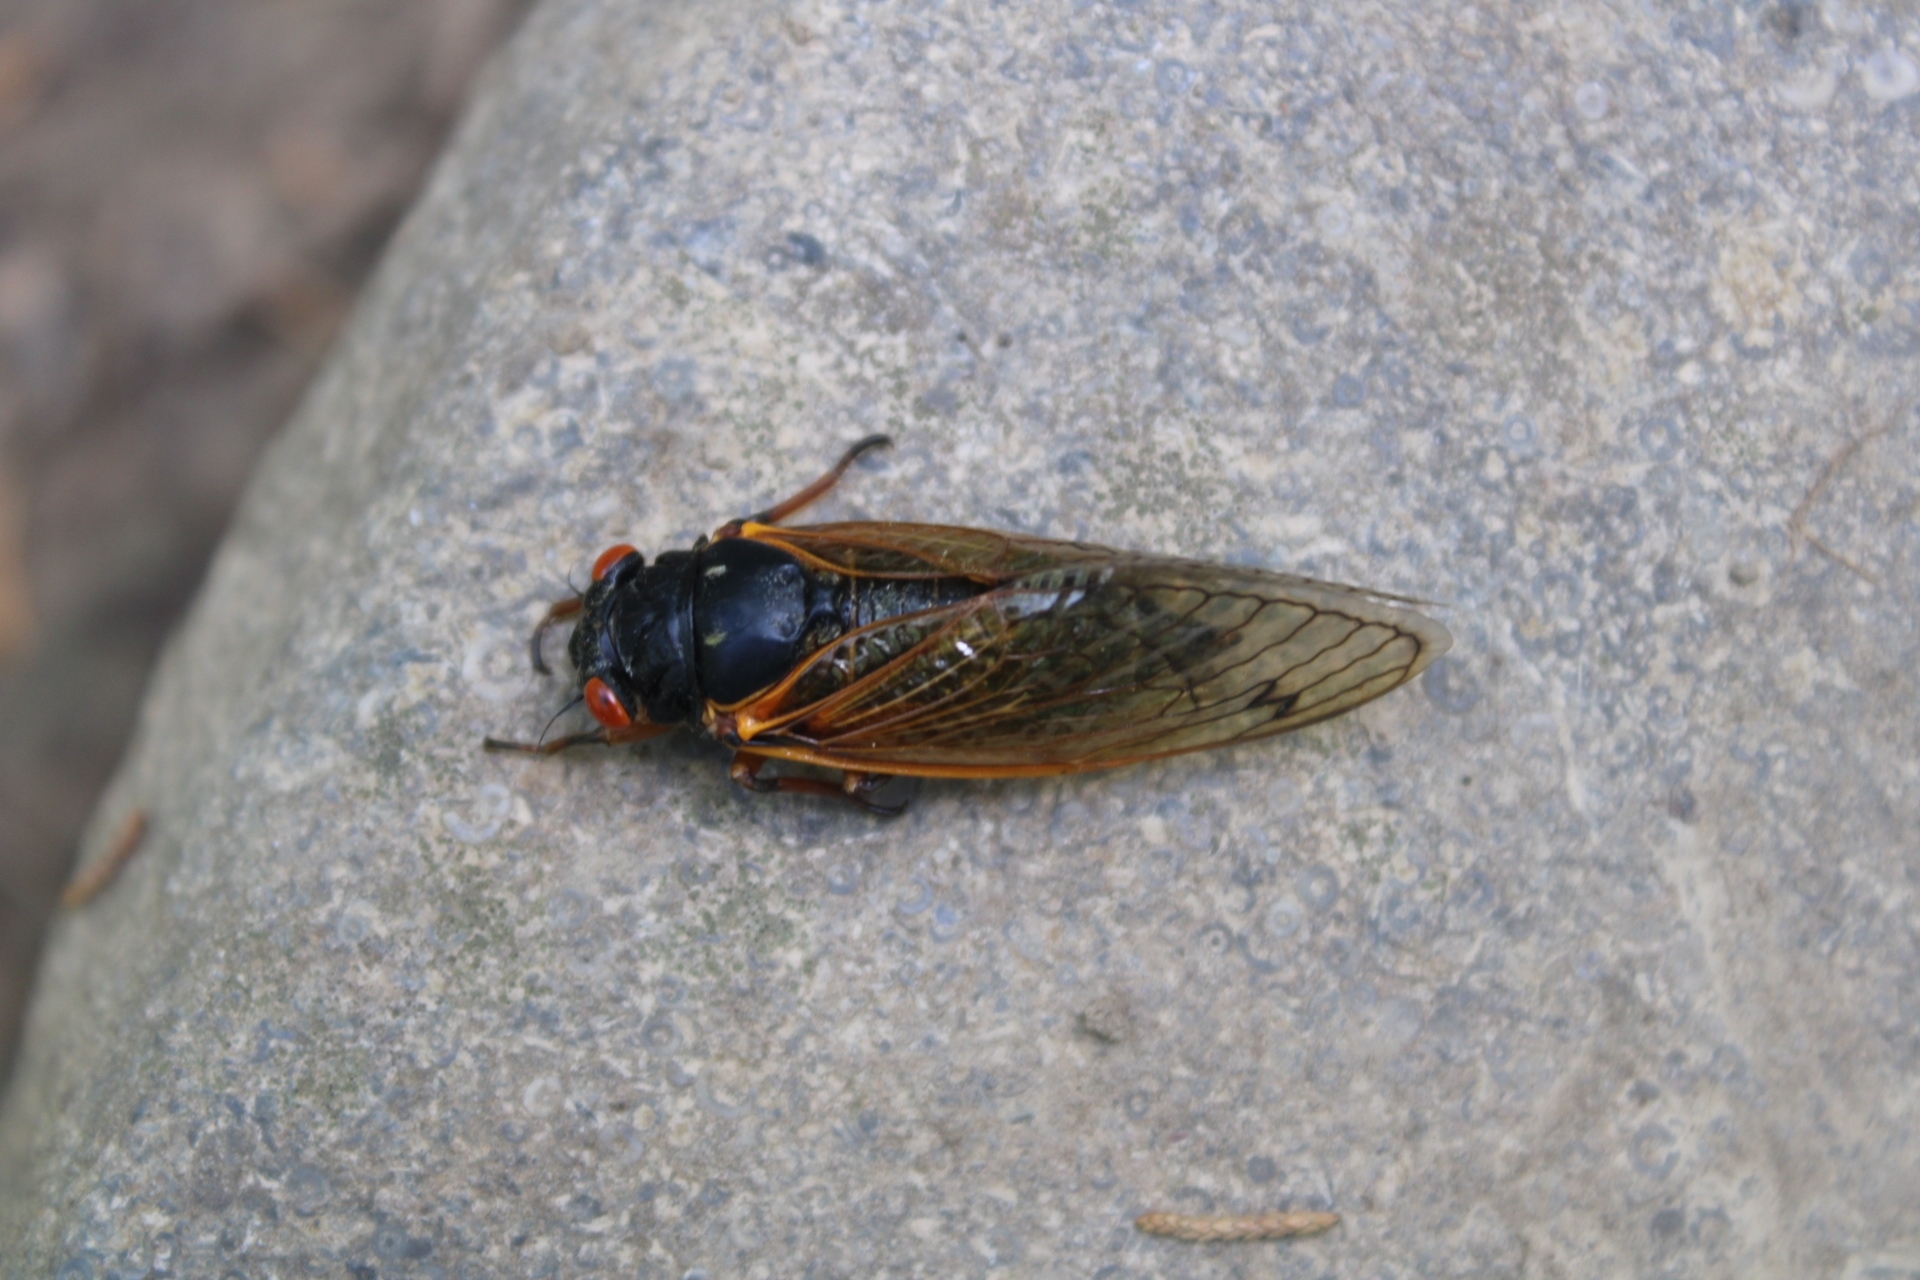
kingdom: Animalia
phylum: Arthropoda
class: Insecta
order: Hemiptera
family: Cicadidae
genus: Magicicada
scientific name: Magicicada
